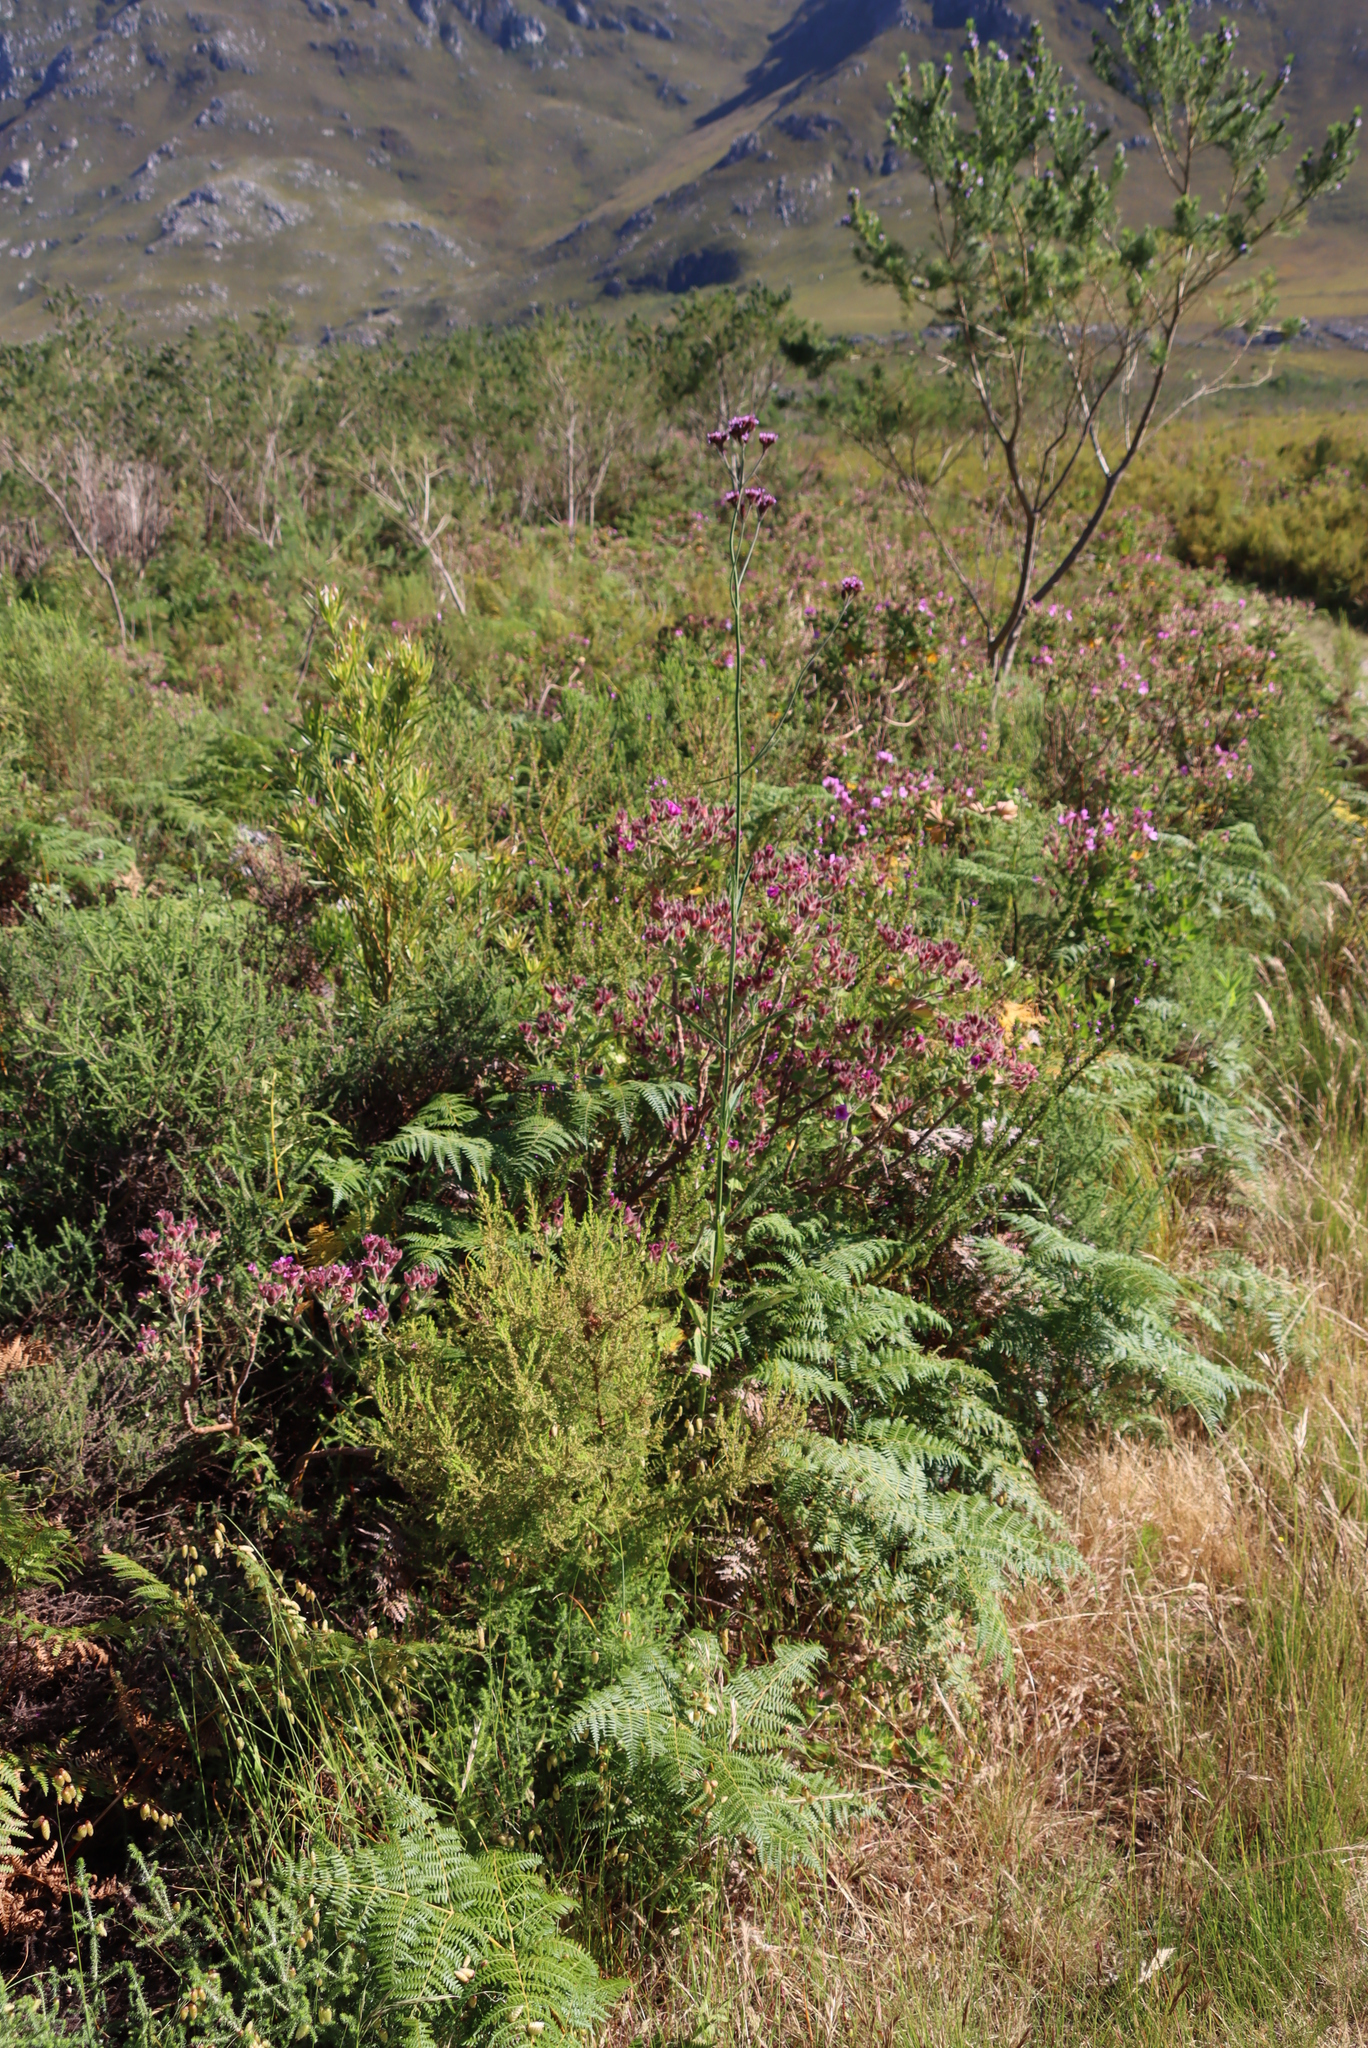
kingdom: Plantae
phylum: Tracheophyta
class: Magnoliopsida
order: Lamiales
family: Verbenaceae
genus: Verbena
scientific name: Verbena bonariensis
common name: Purpletop vervain
